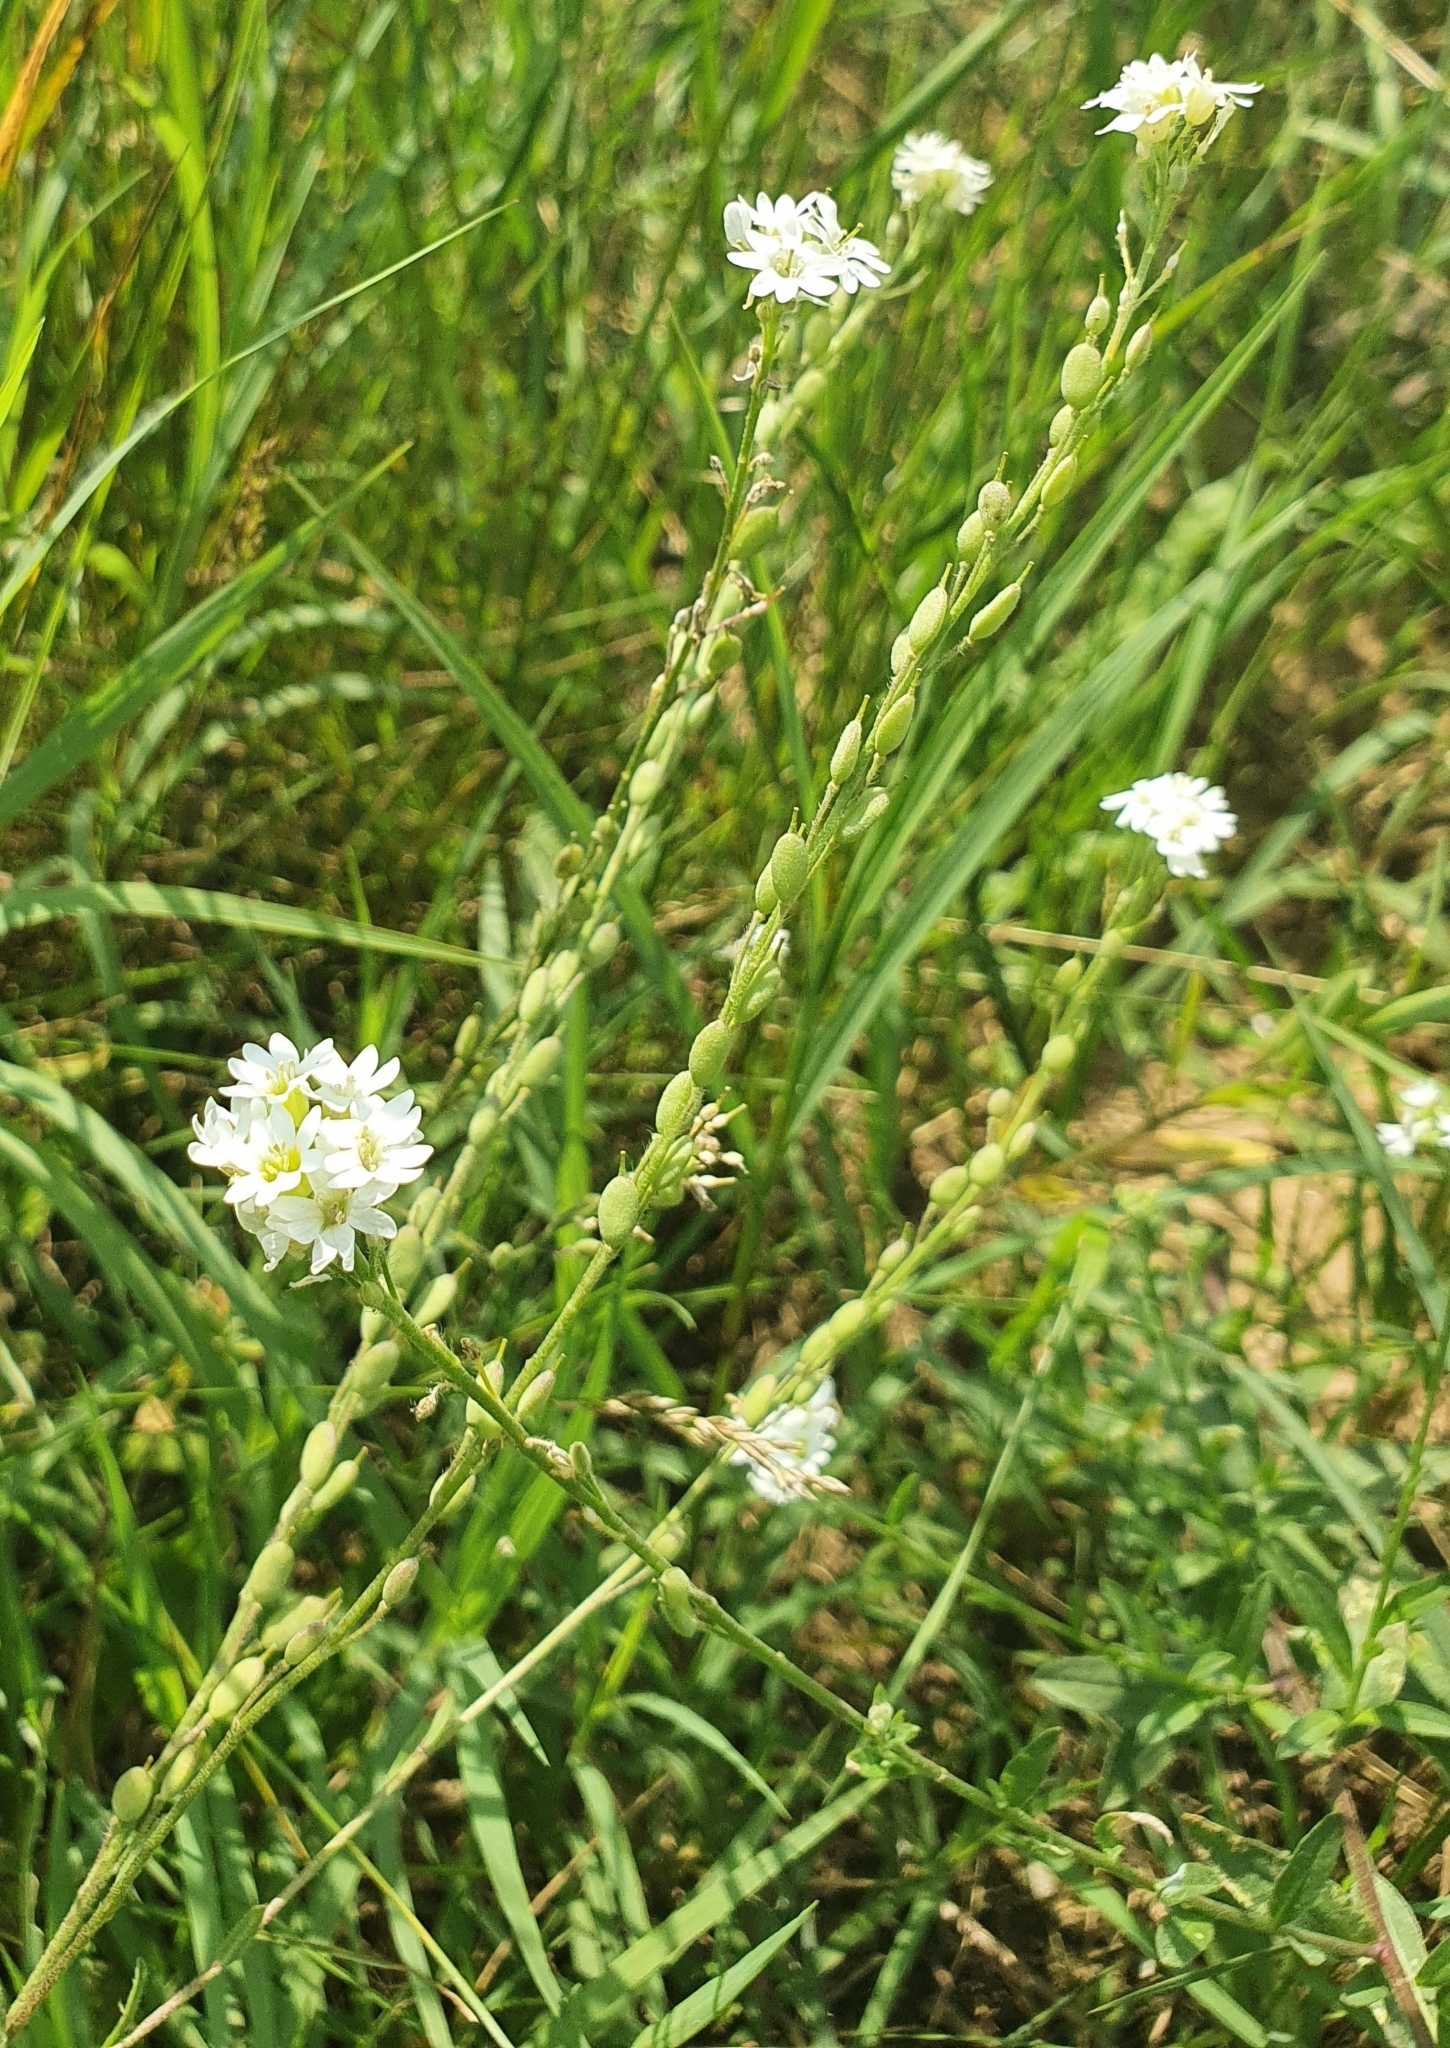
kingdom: Plantae
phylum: Tracheophyta
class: Magnoliopsida
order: Brassicales
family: Brassicaceae
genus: Berteroa
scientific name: Berteroa incana
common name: Hoary alison
